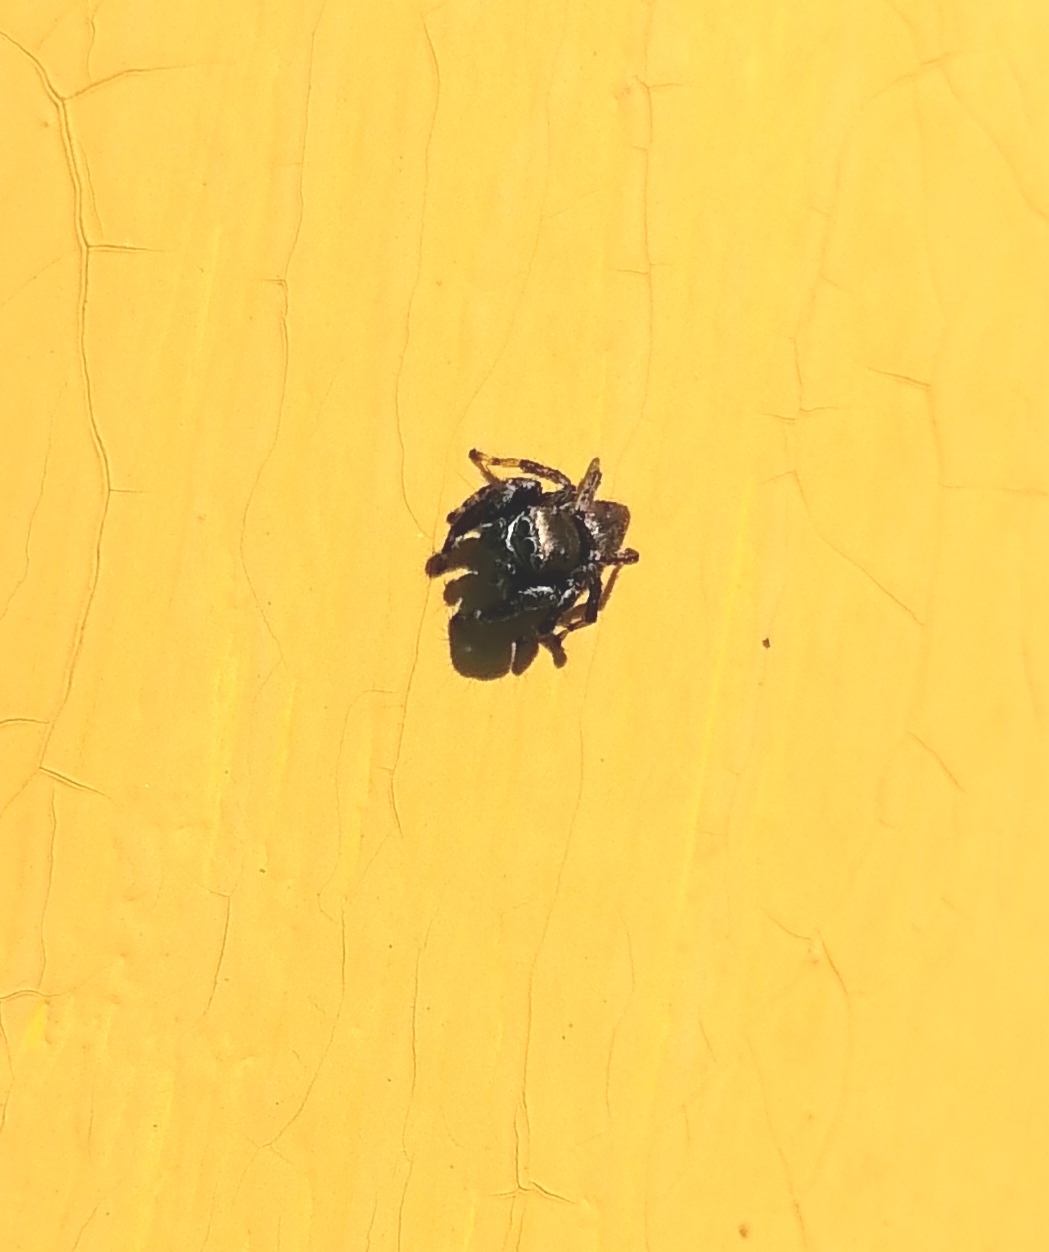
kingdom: Animalia
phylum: Arthropoda
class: Arachnida
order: Araneae
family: Salticidae
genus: Evarcha
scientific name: Evarcha arcuata
